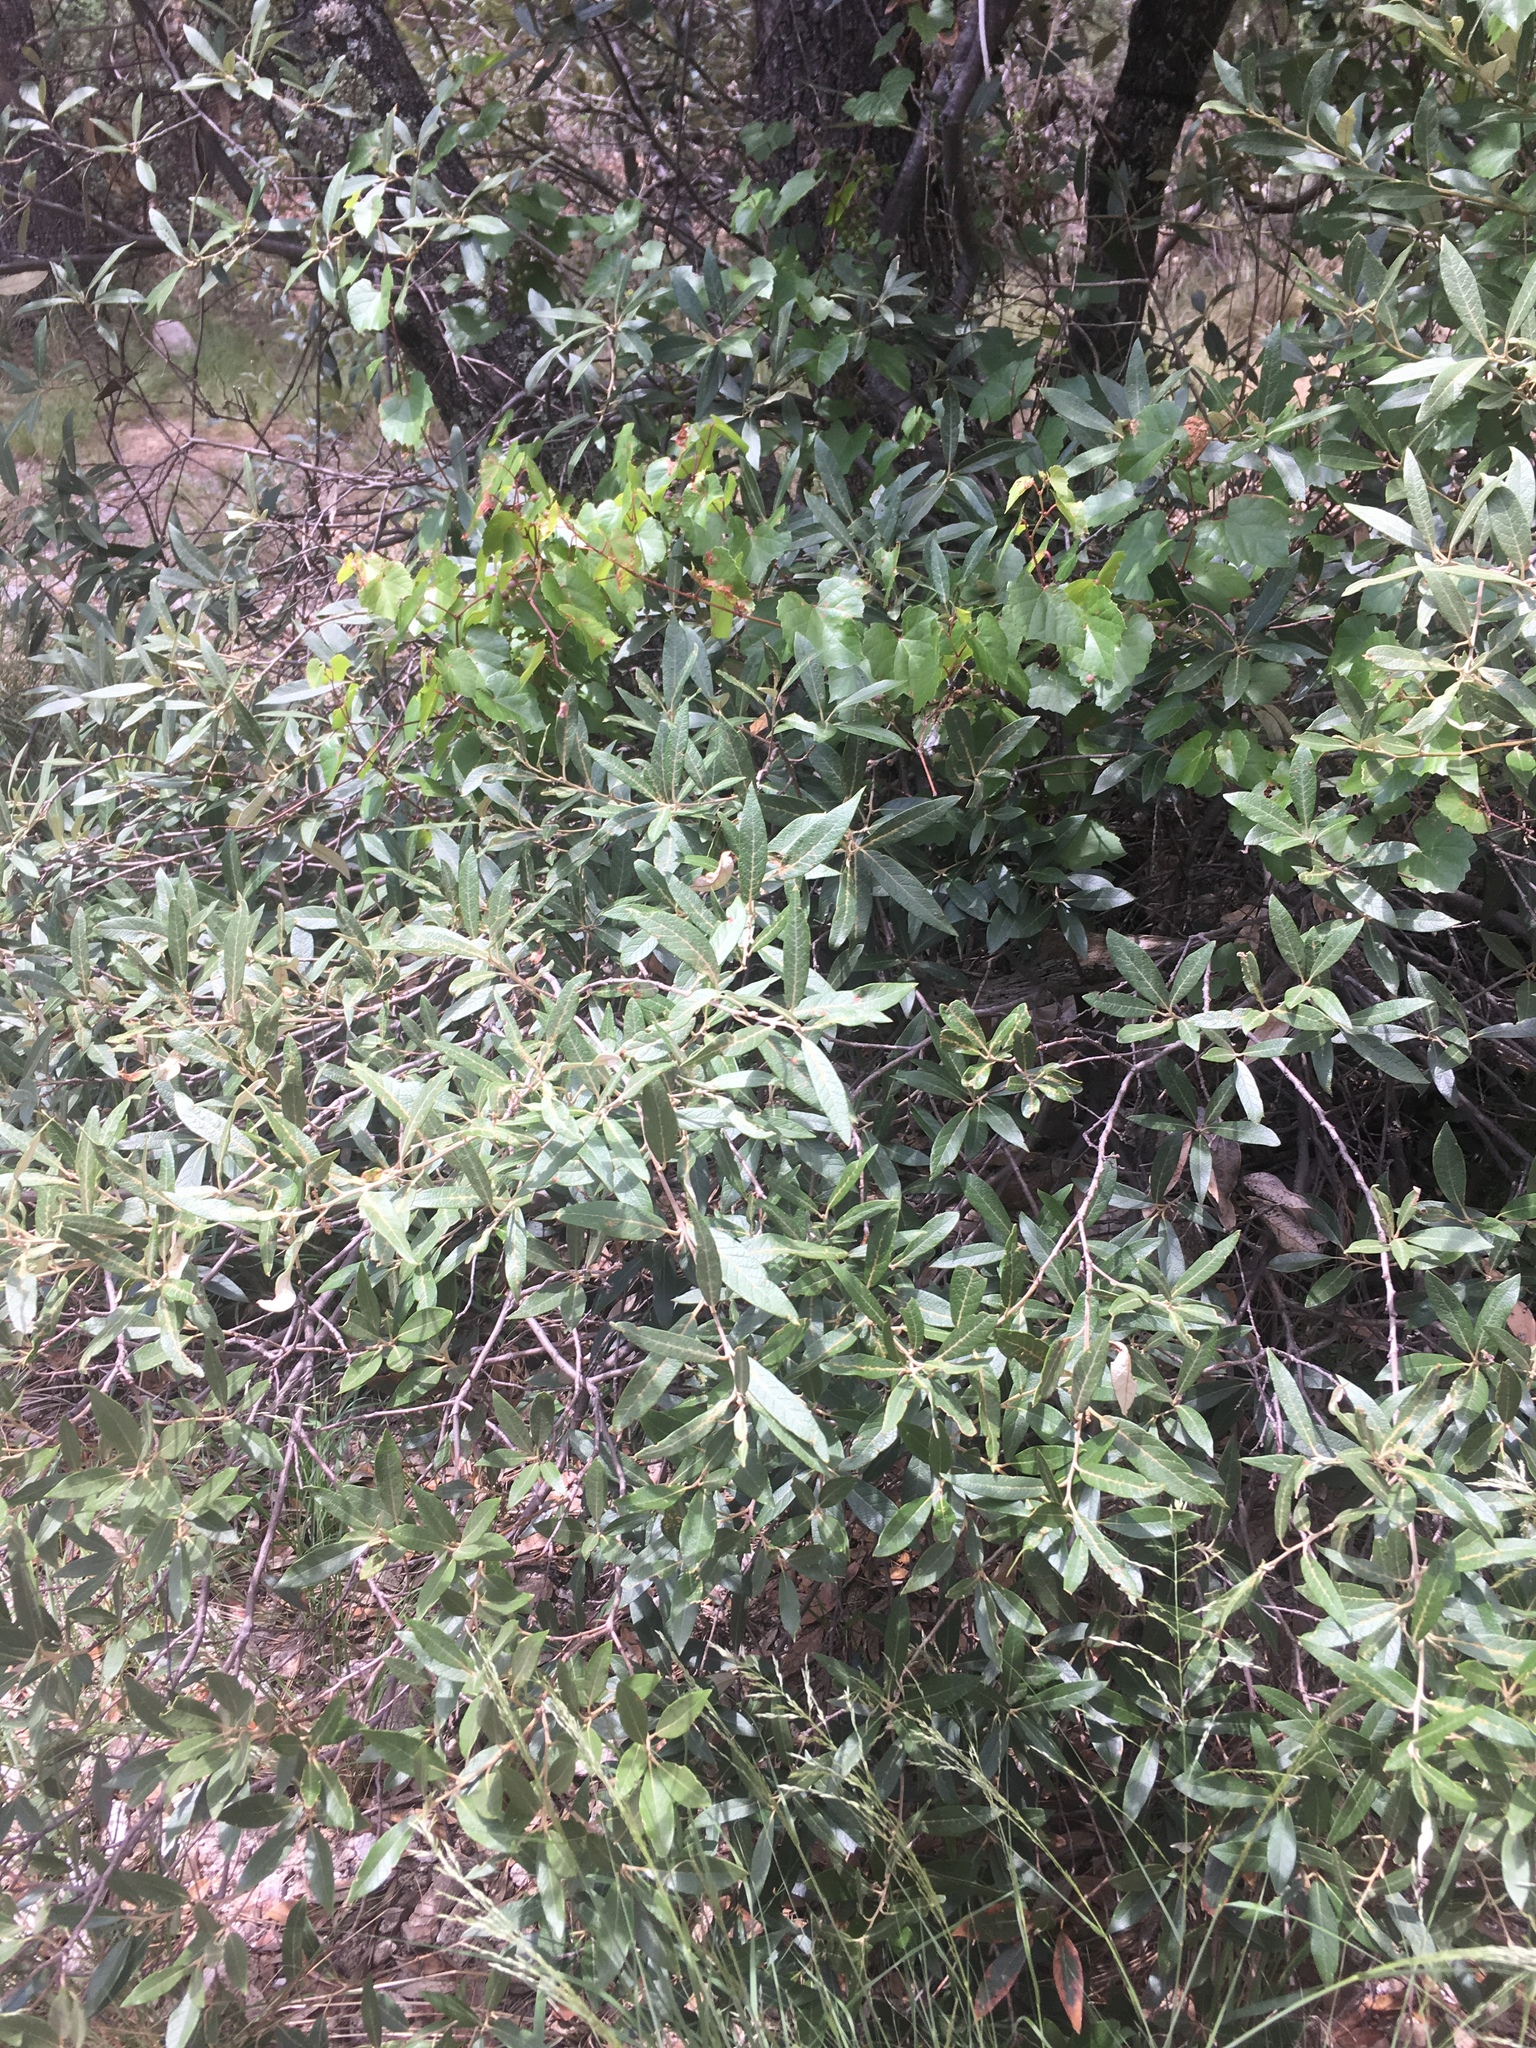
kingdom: Plantae
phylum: Tracheophyta
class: Magnoliopsida
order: Fagales
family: Fagaceae
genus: Quercus
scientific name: Quercus hypoleucoides
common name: Silverleaf oak
